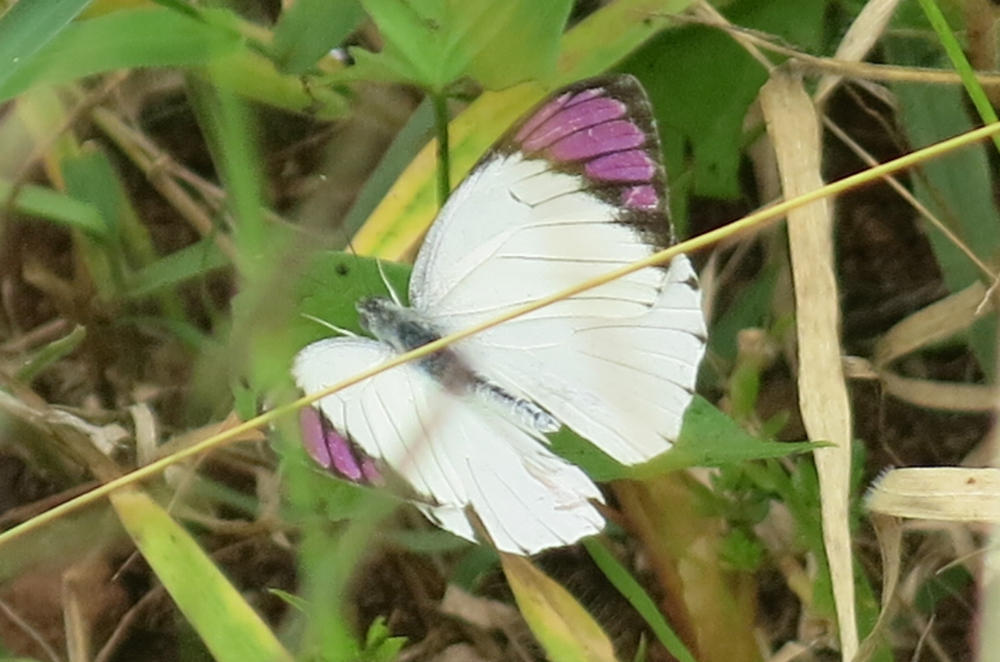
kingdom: Animalia
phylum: Arthropoda
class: Insecta
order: Lepidoptera
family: Pieridae
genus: Colotis
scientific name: Colotis regina
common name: Queen purple tip
